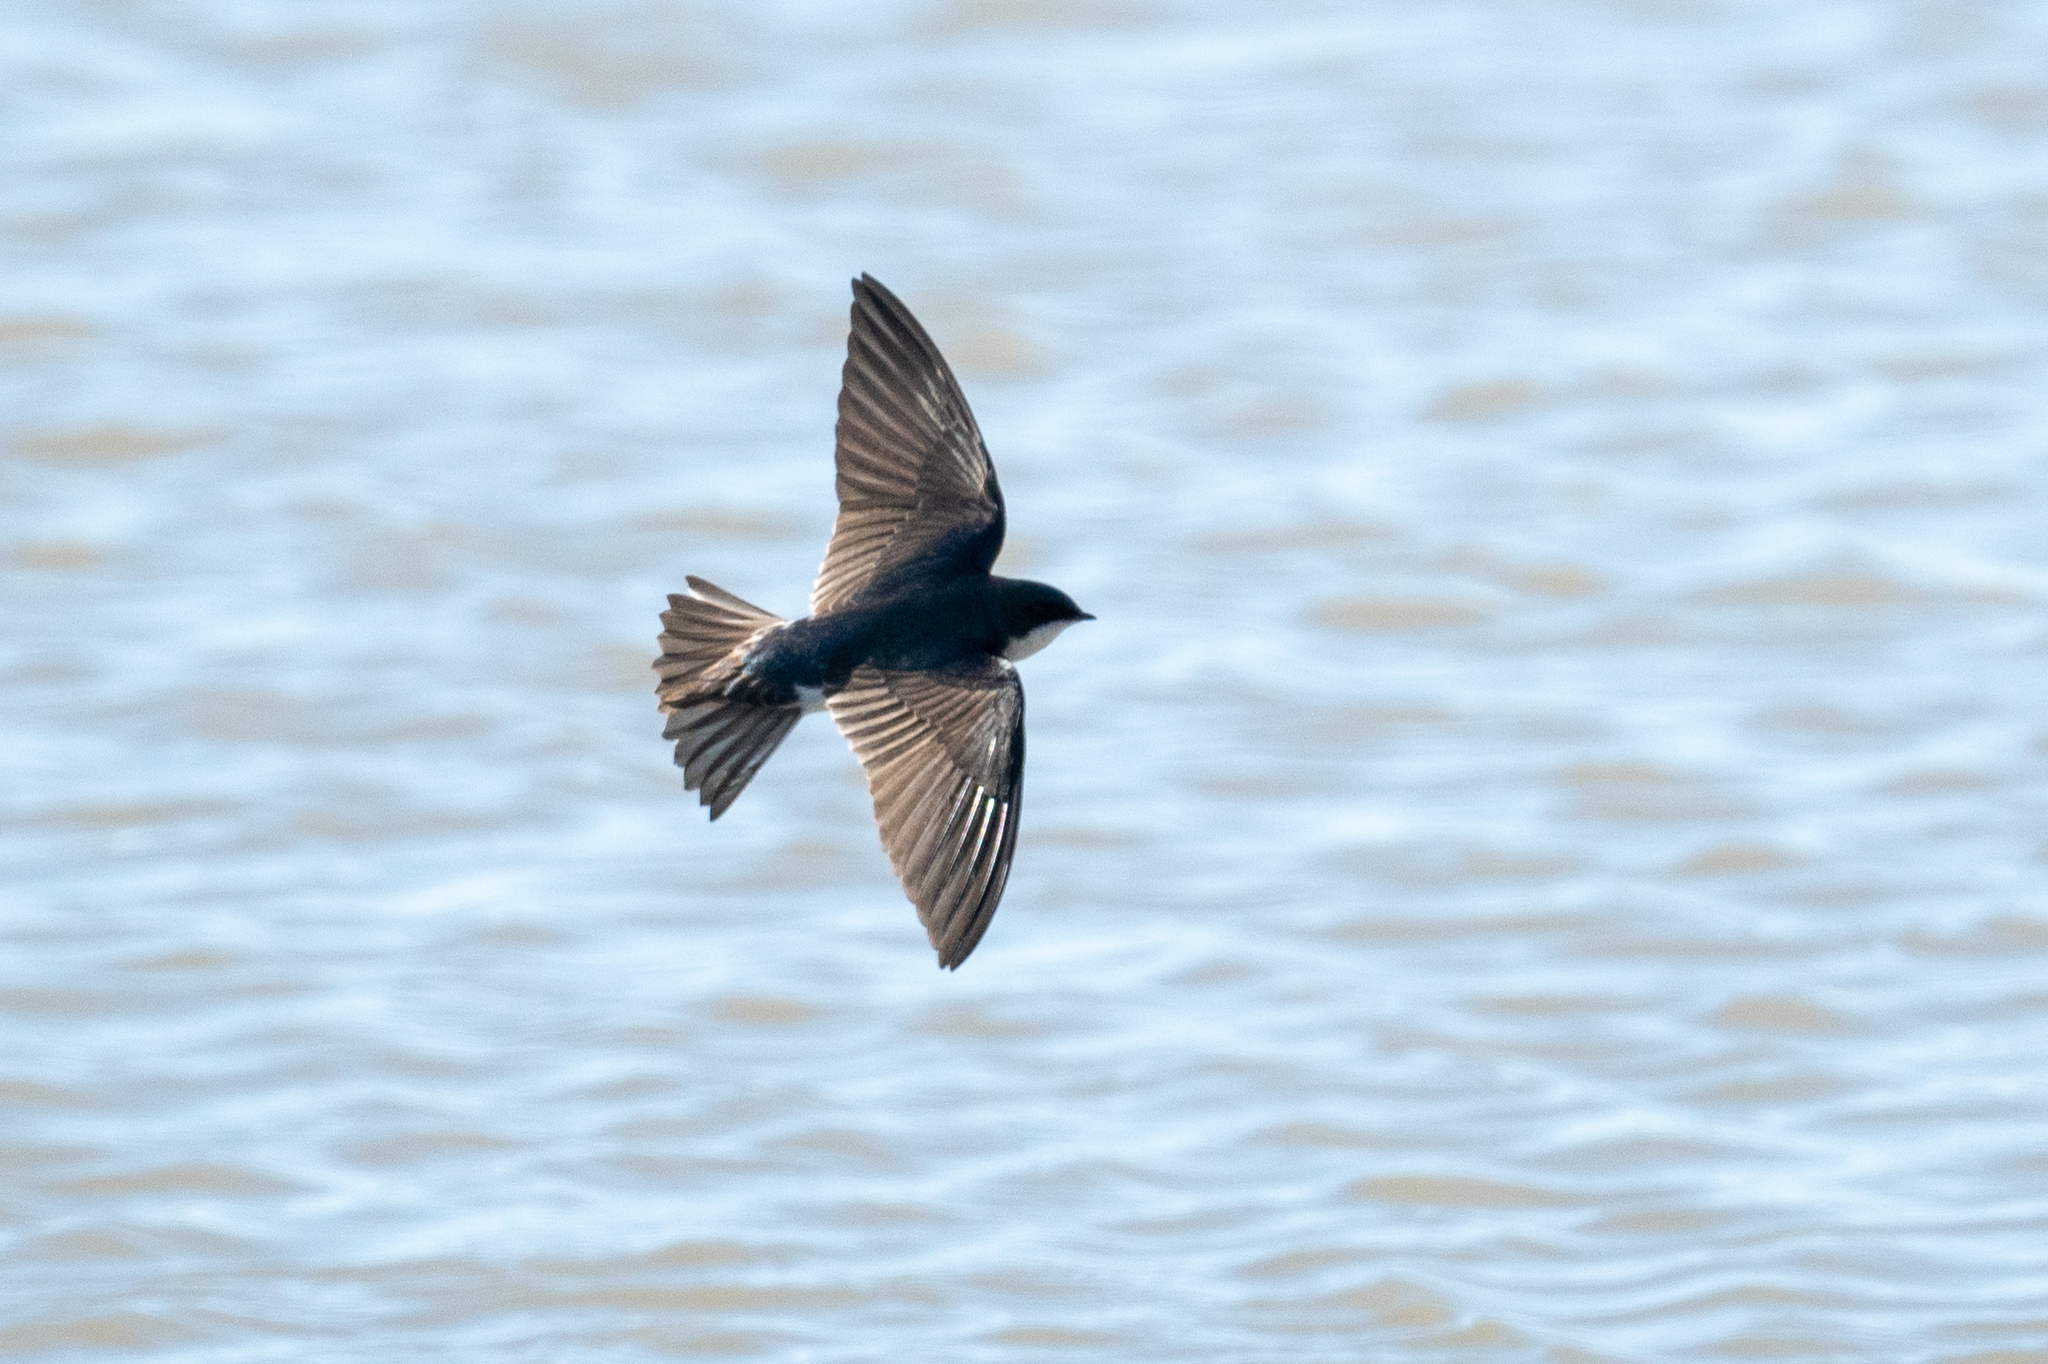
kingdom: Animalia
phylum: Chordata
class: Aves
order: Passeriformes
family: Hirundinidae
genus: Tachycineta
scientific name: Tachycineta bicolor
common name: Tree swallow
